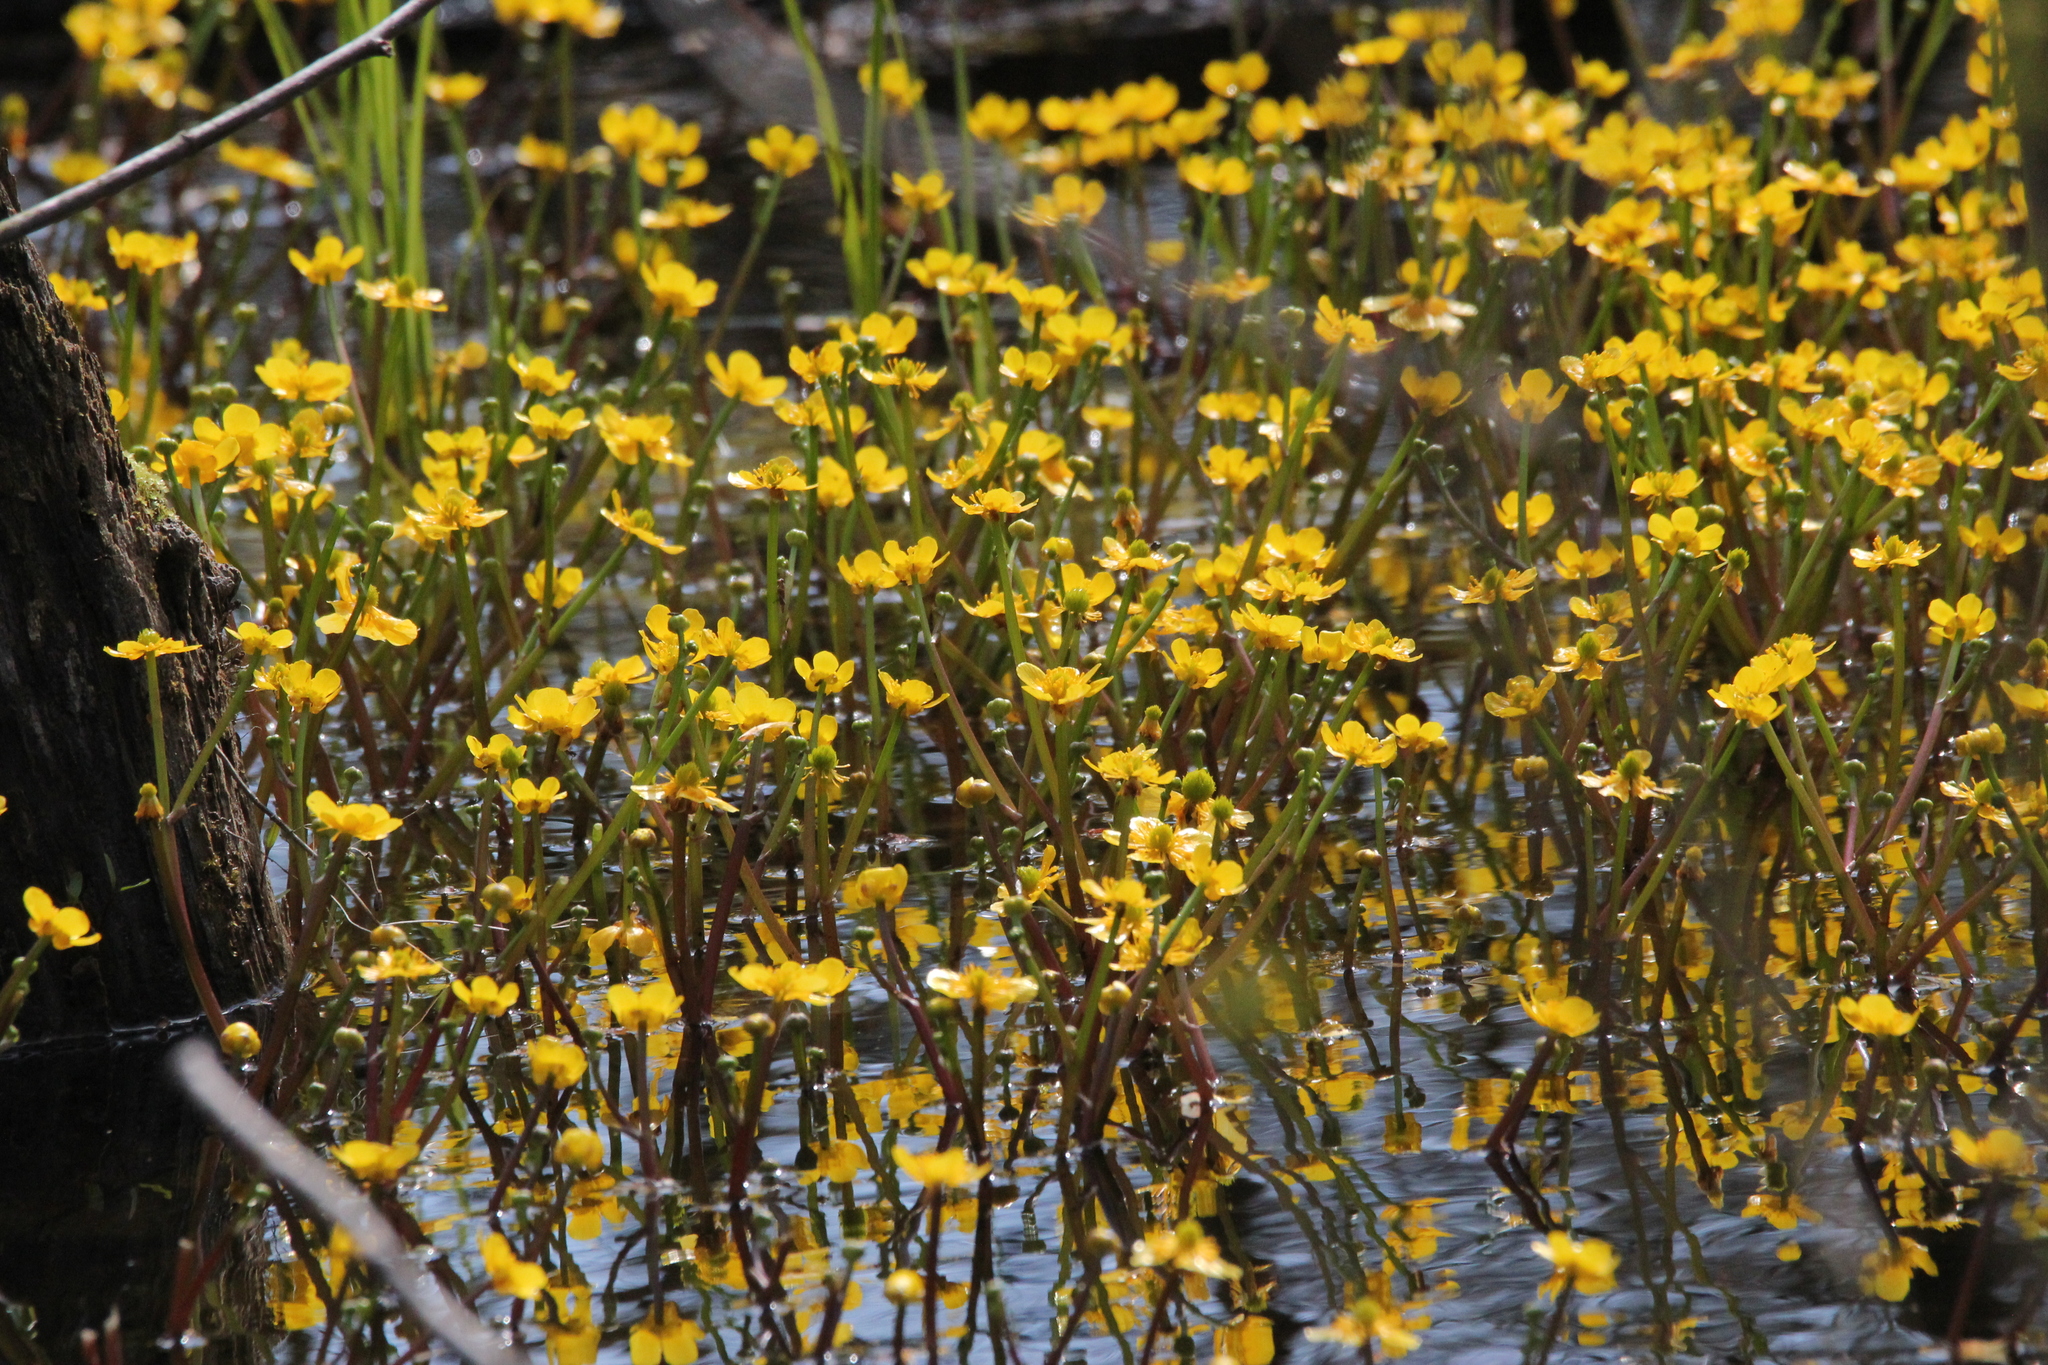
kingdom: Plantae
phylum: Tracheophyta
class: Magnoliopsida
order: Ranunculales
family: Ranunculaceae
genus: Ranunculus
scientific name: Ranunculus flabellaris
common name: Yellow water-crowfoot
